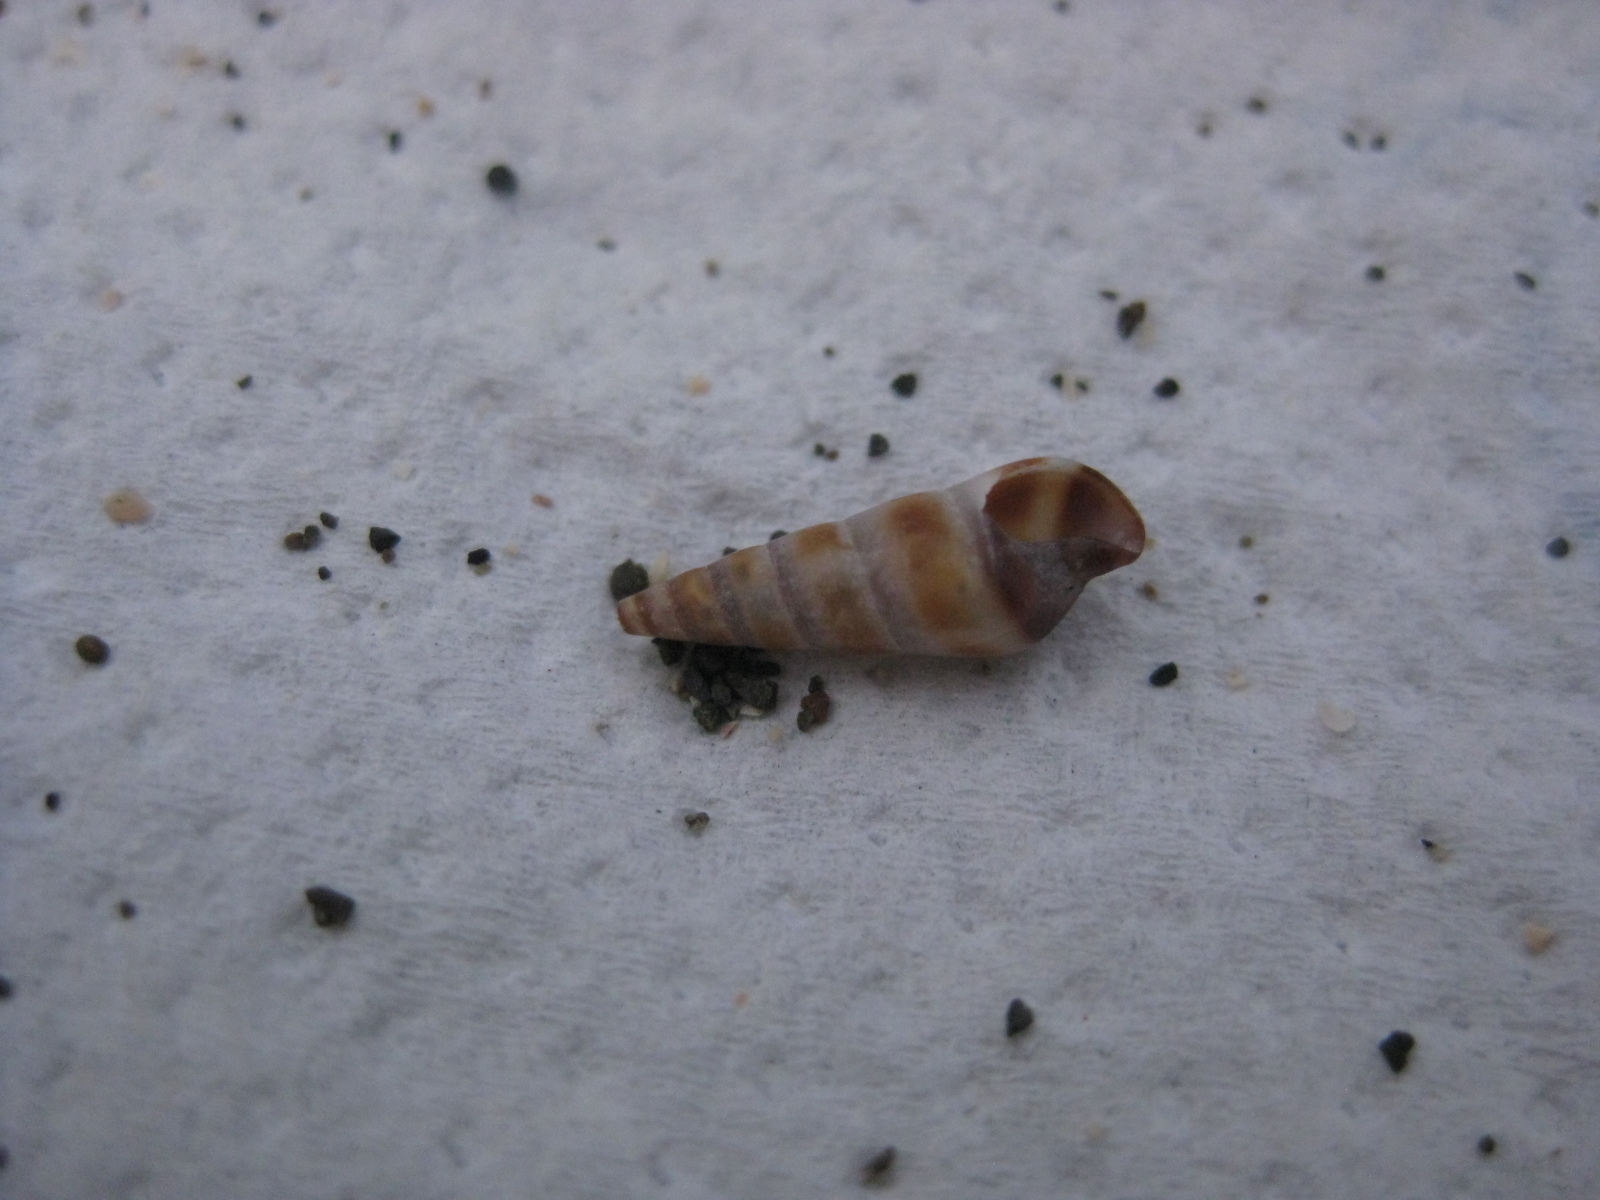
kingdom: Animalia
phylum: Mollusca
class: Gastropoda
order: Neogastropoda
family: Terebridae
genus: Duplicaria
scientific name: Duplicaria tristis
